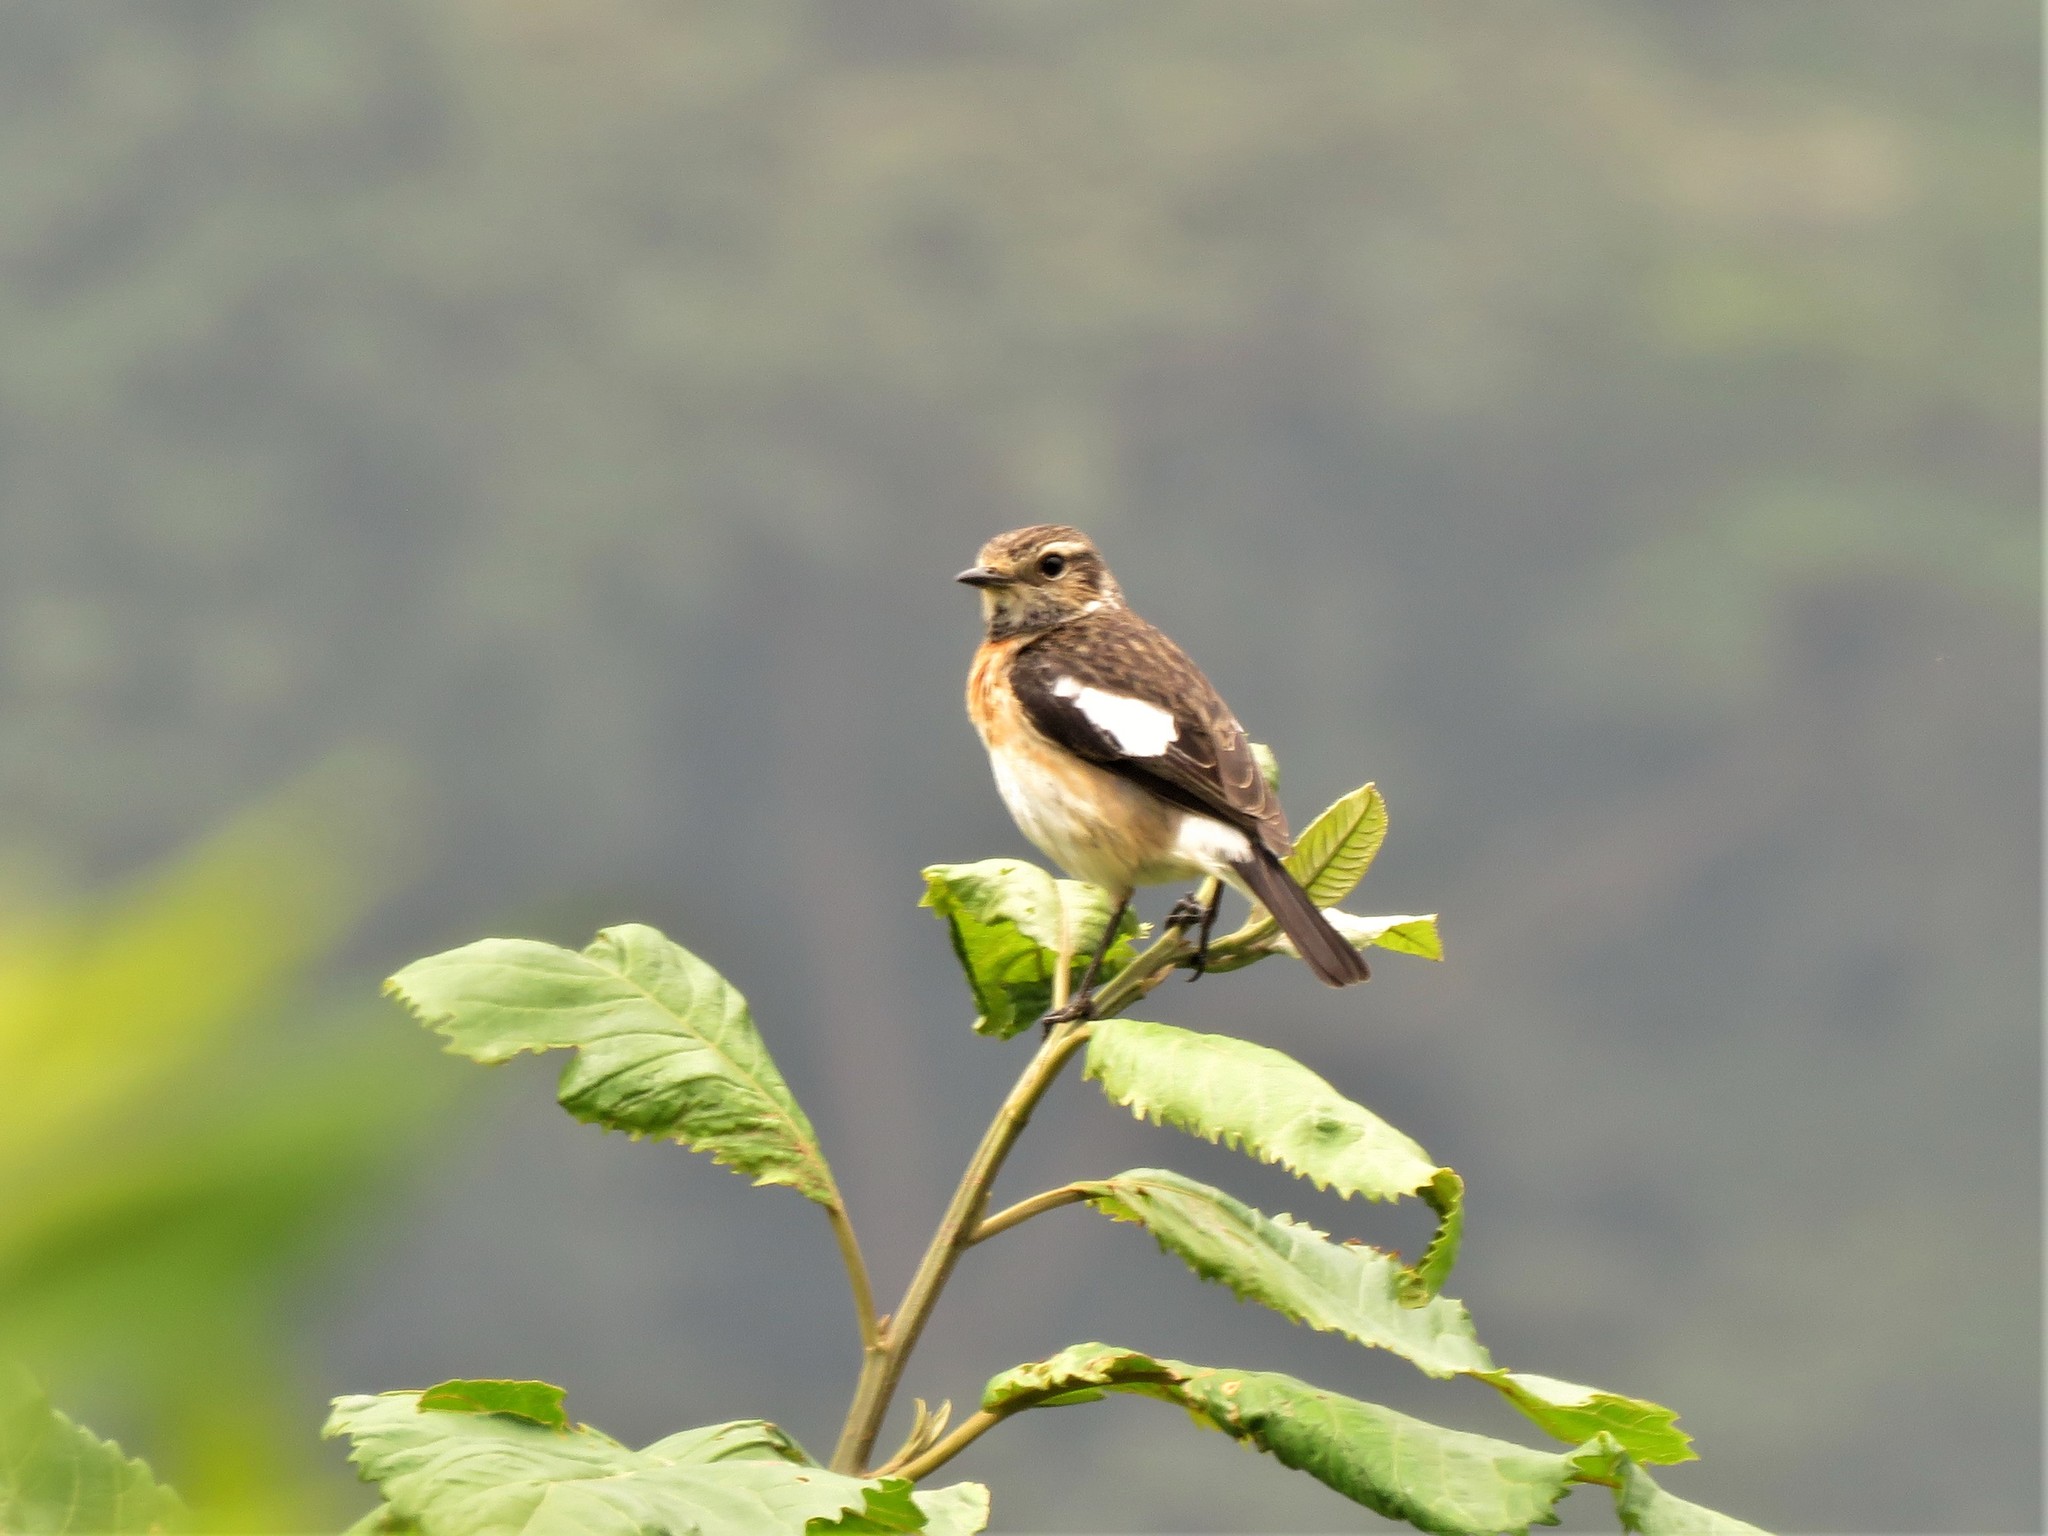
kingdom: Animalia
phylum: Chordata
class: Aves
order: Passeriformes
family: Muscicapidae
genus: Saxicola
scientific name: Saxicola torquatus
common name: African stonechat
